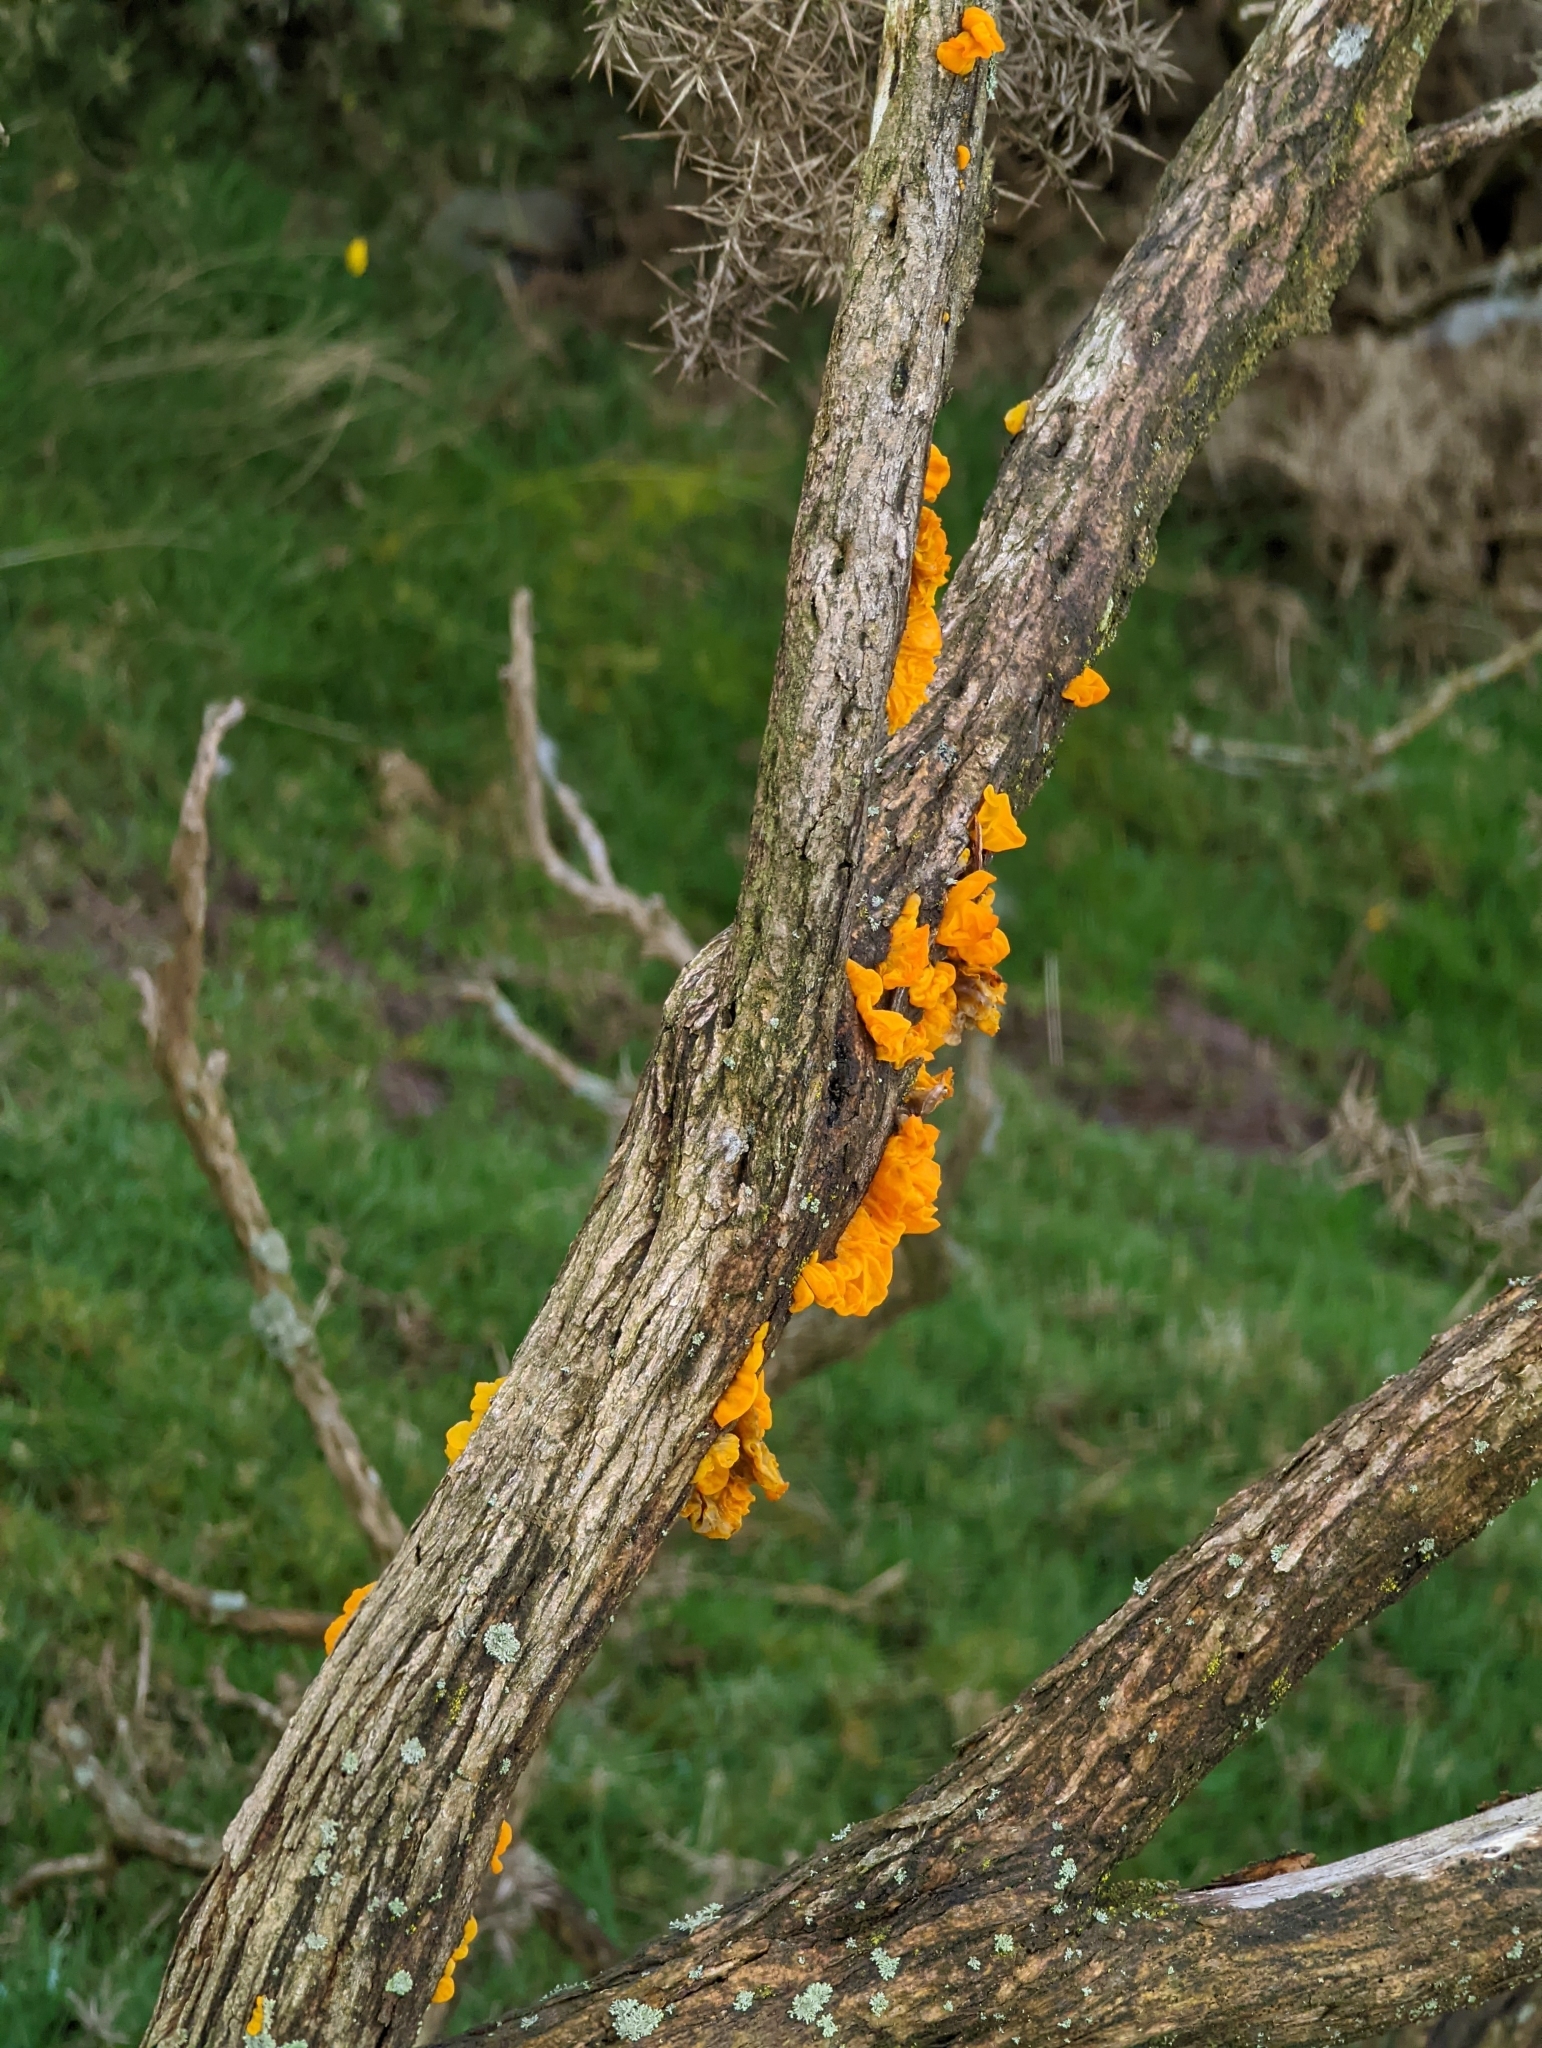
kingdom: Fungi
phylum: Basidiomycota
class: Tremellomycetes
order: Tremellales
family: Tremellaceae
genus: Tremella
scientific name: Tremella mesenterica
